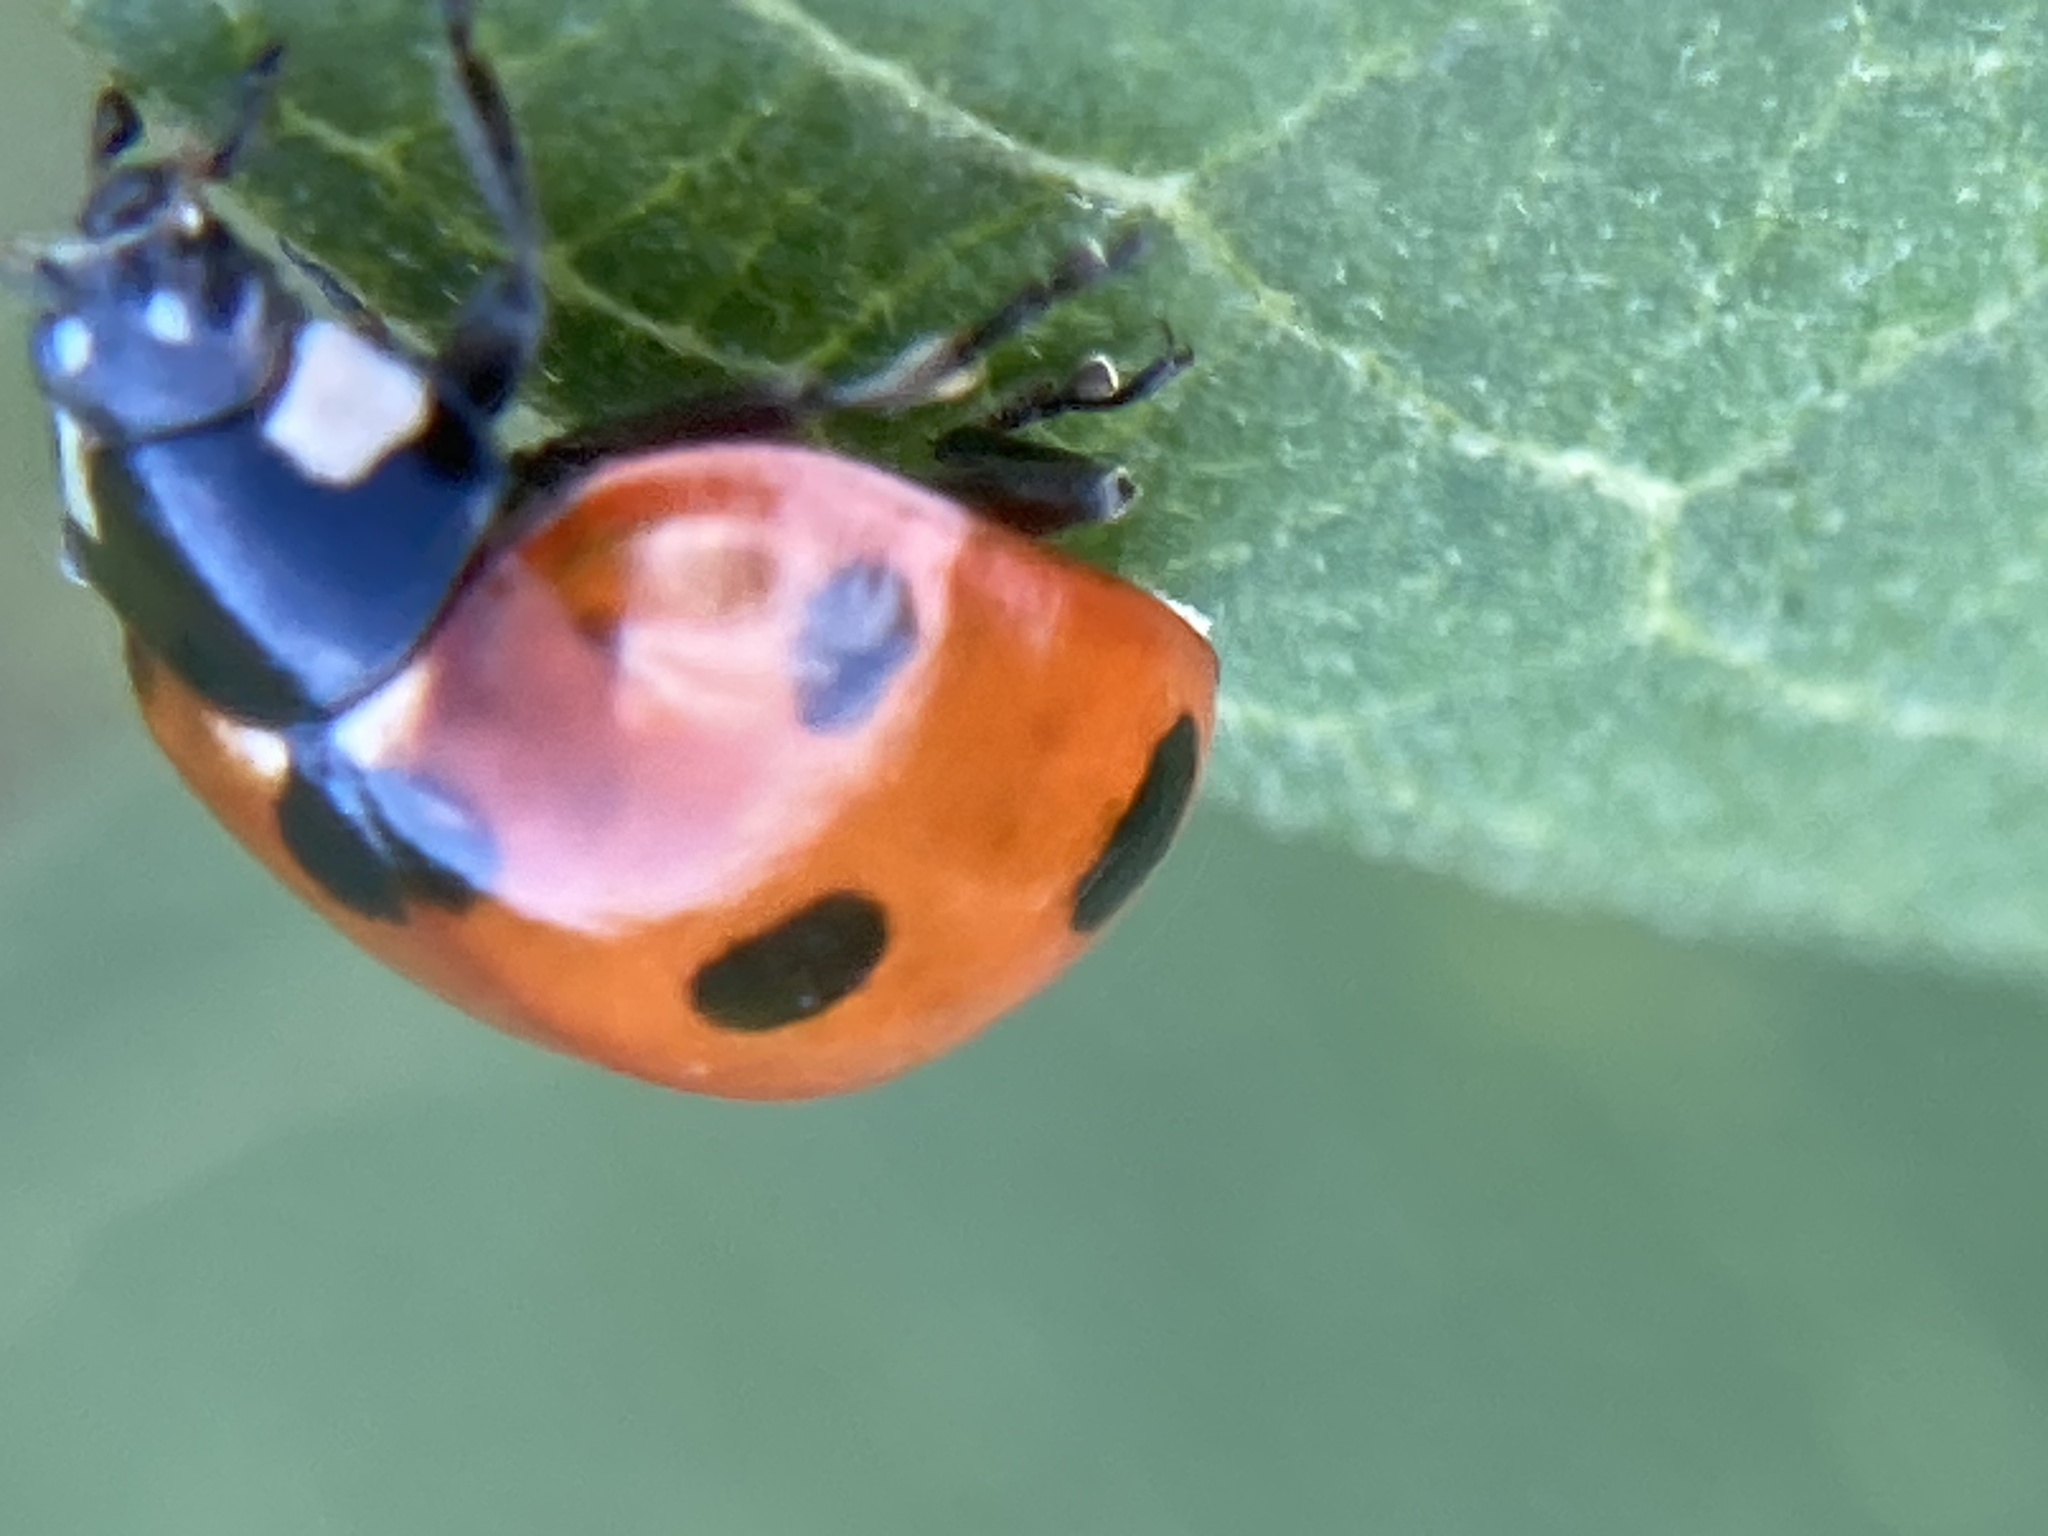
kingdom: Animalia
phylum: Arthropoda
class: Insecta
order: Coleoptera
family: Coccinellidae
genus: Coccinella
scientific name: Coccinella septempunctata
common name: Sevenspotted lady beetle
